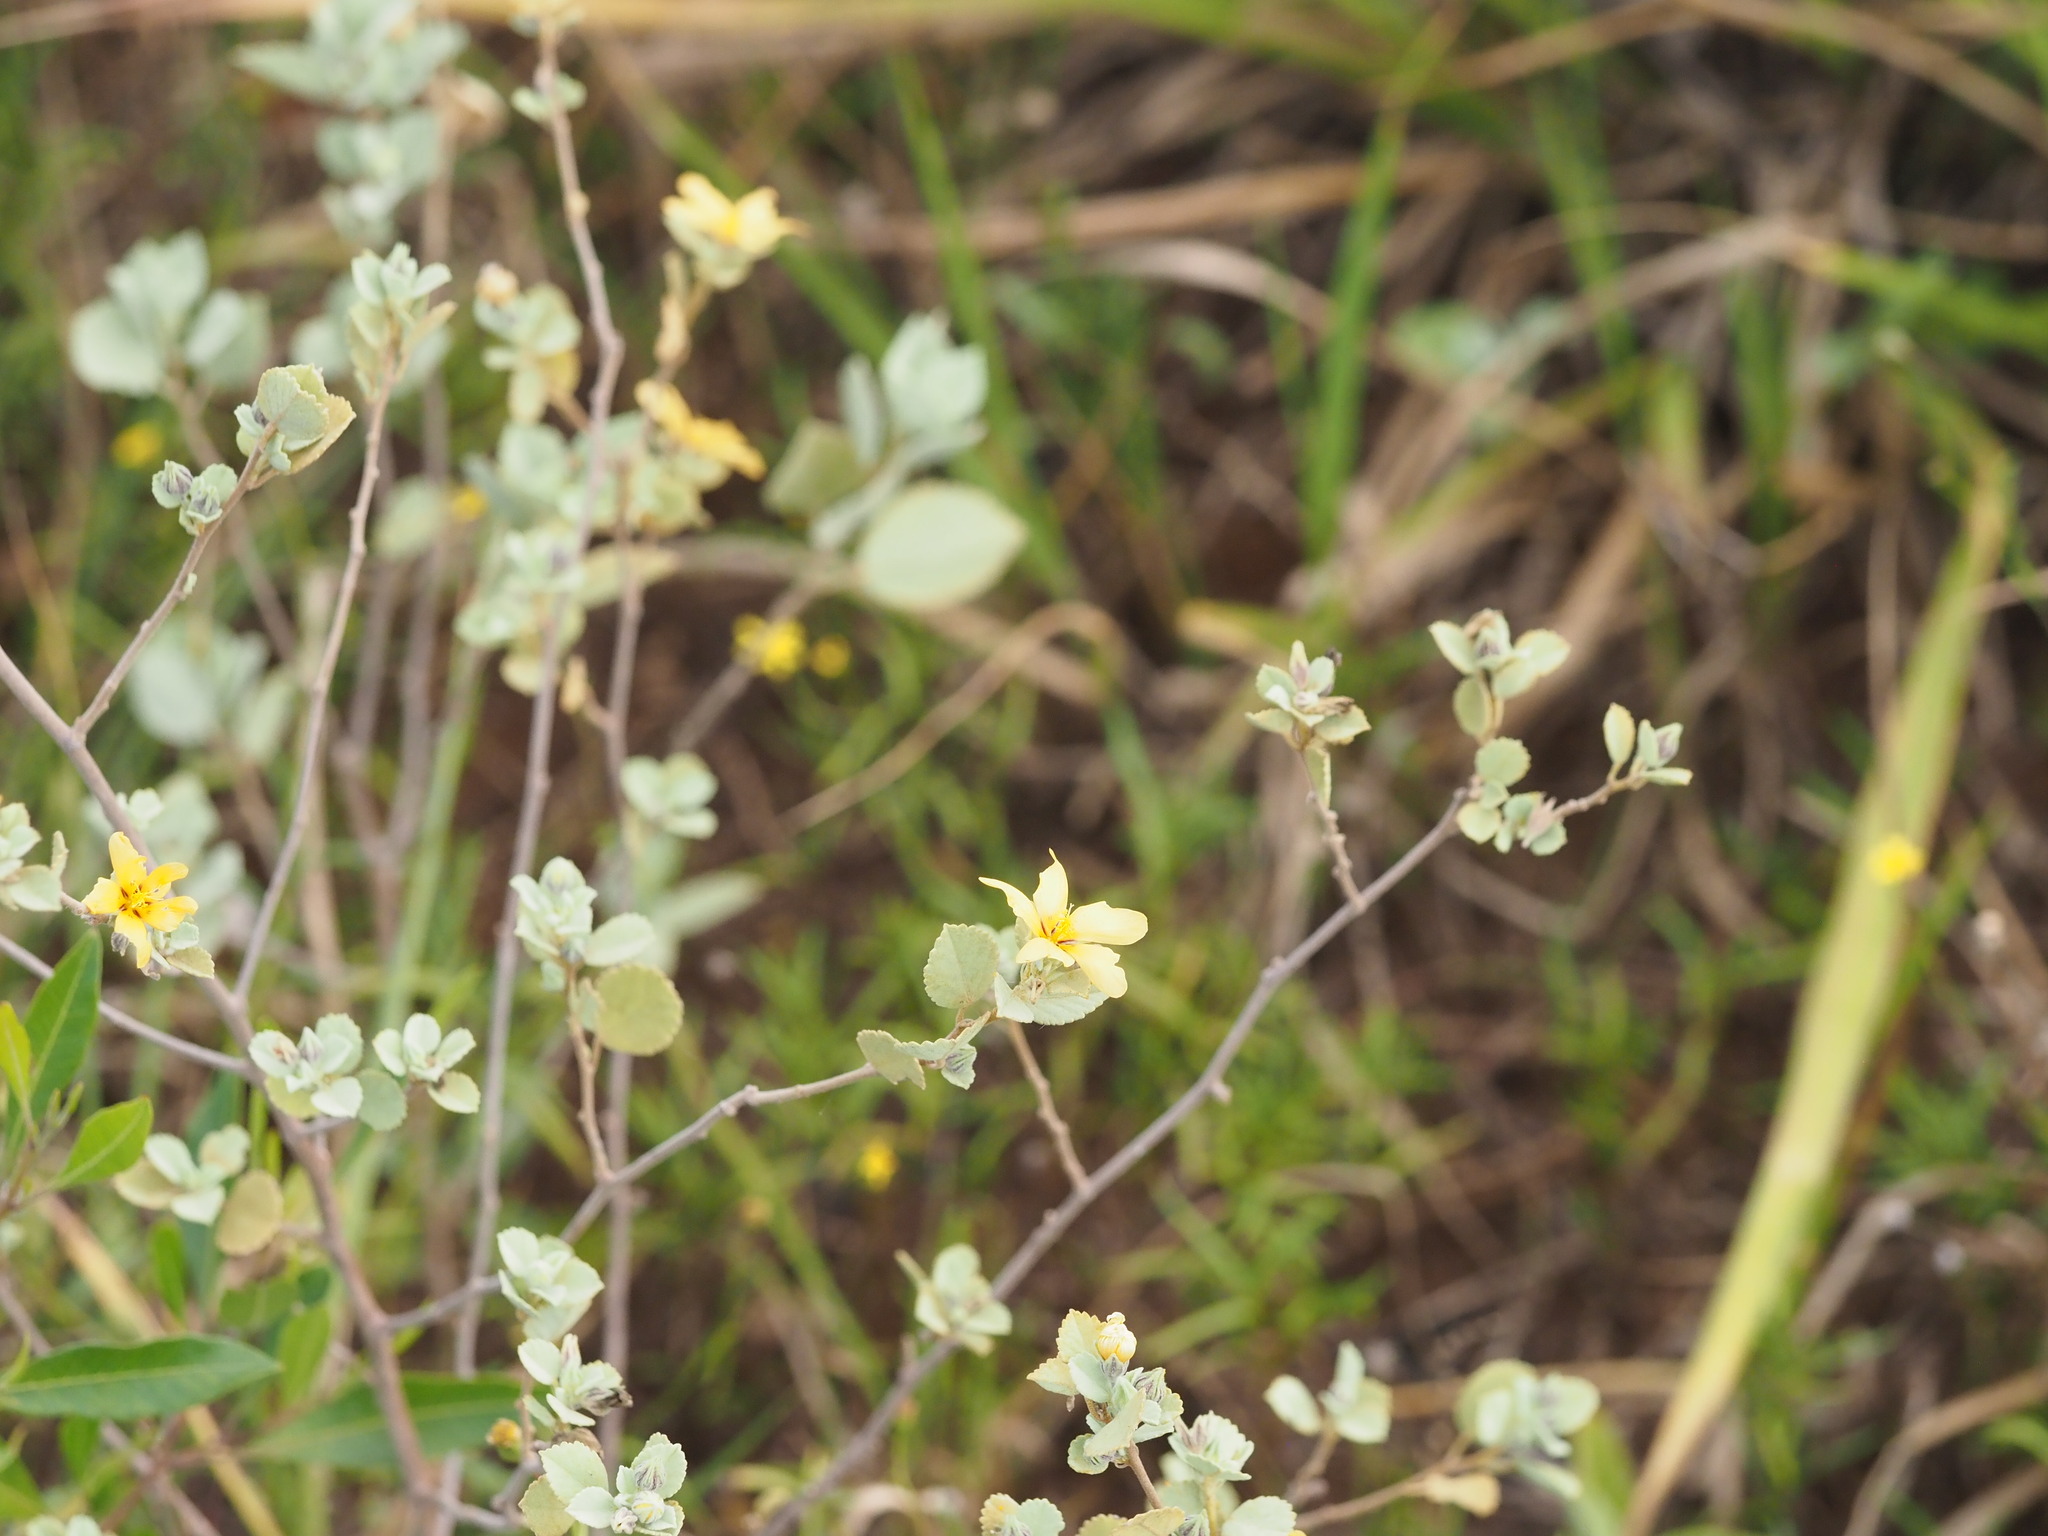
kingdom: Plantae
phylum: Tracheophyta
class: Magnoliopsida
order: Malvales
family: Malvaceae
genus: Sida
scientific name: Sida fallax
